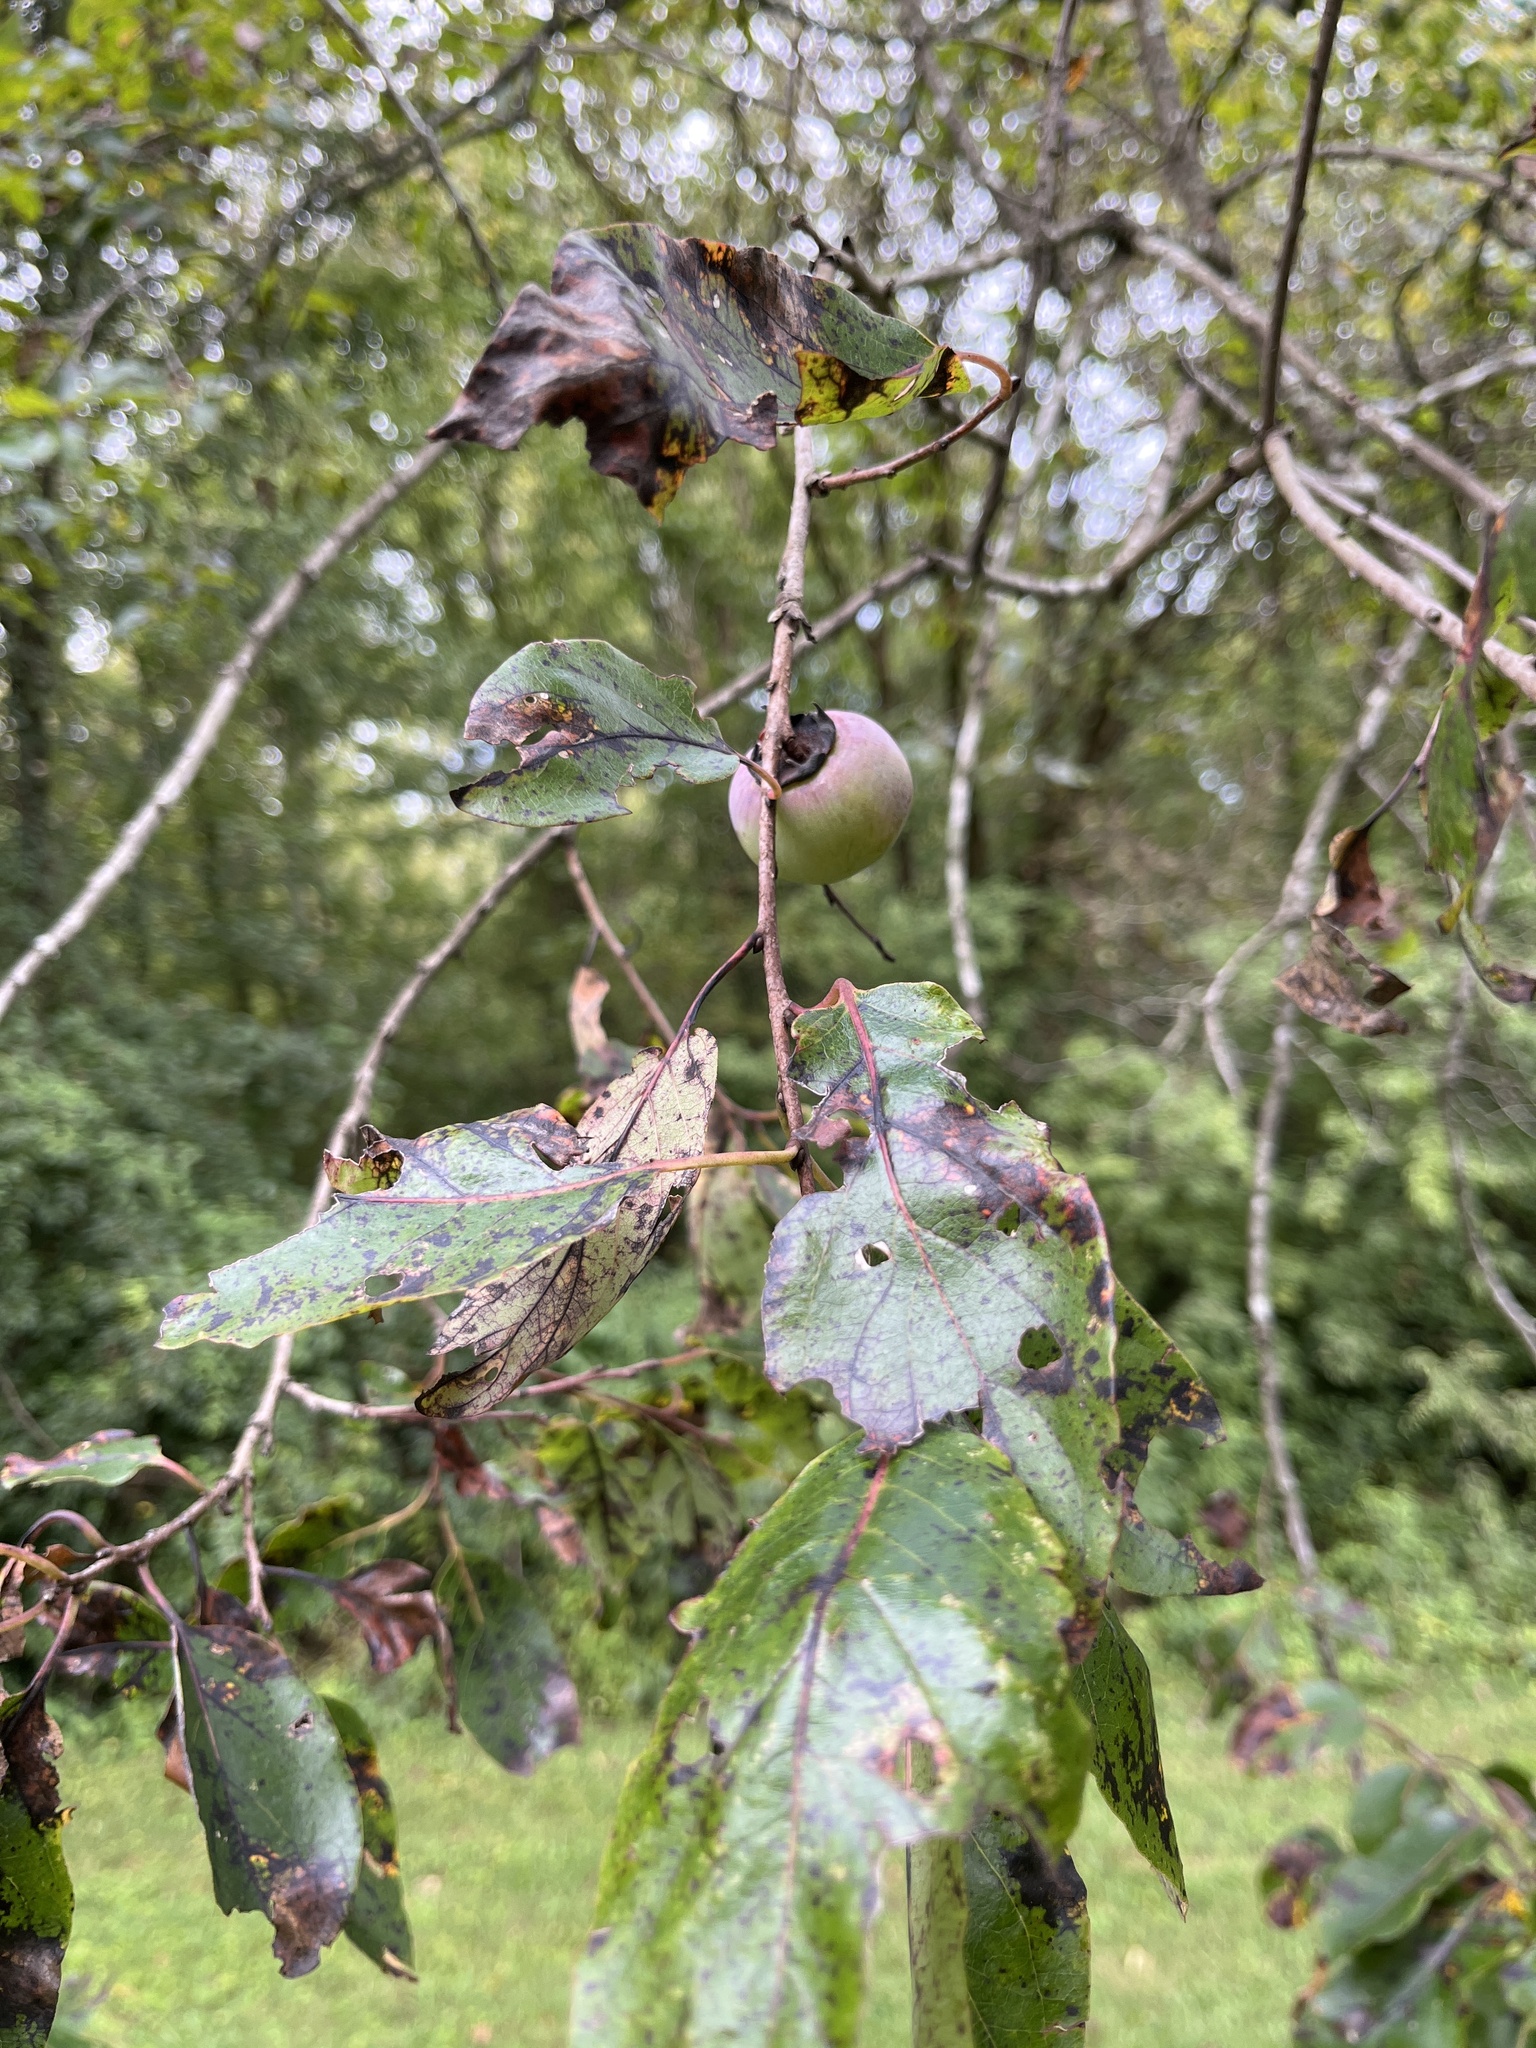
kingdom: Plantae
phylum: Tracheophyta
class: Magnoliopsida
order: Ericales
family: Ebenaceae
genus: Diospyros
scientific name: Diospyros virginiana
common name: Persimmon
